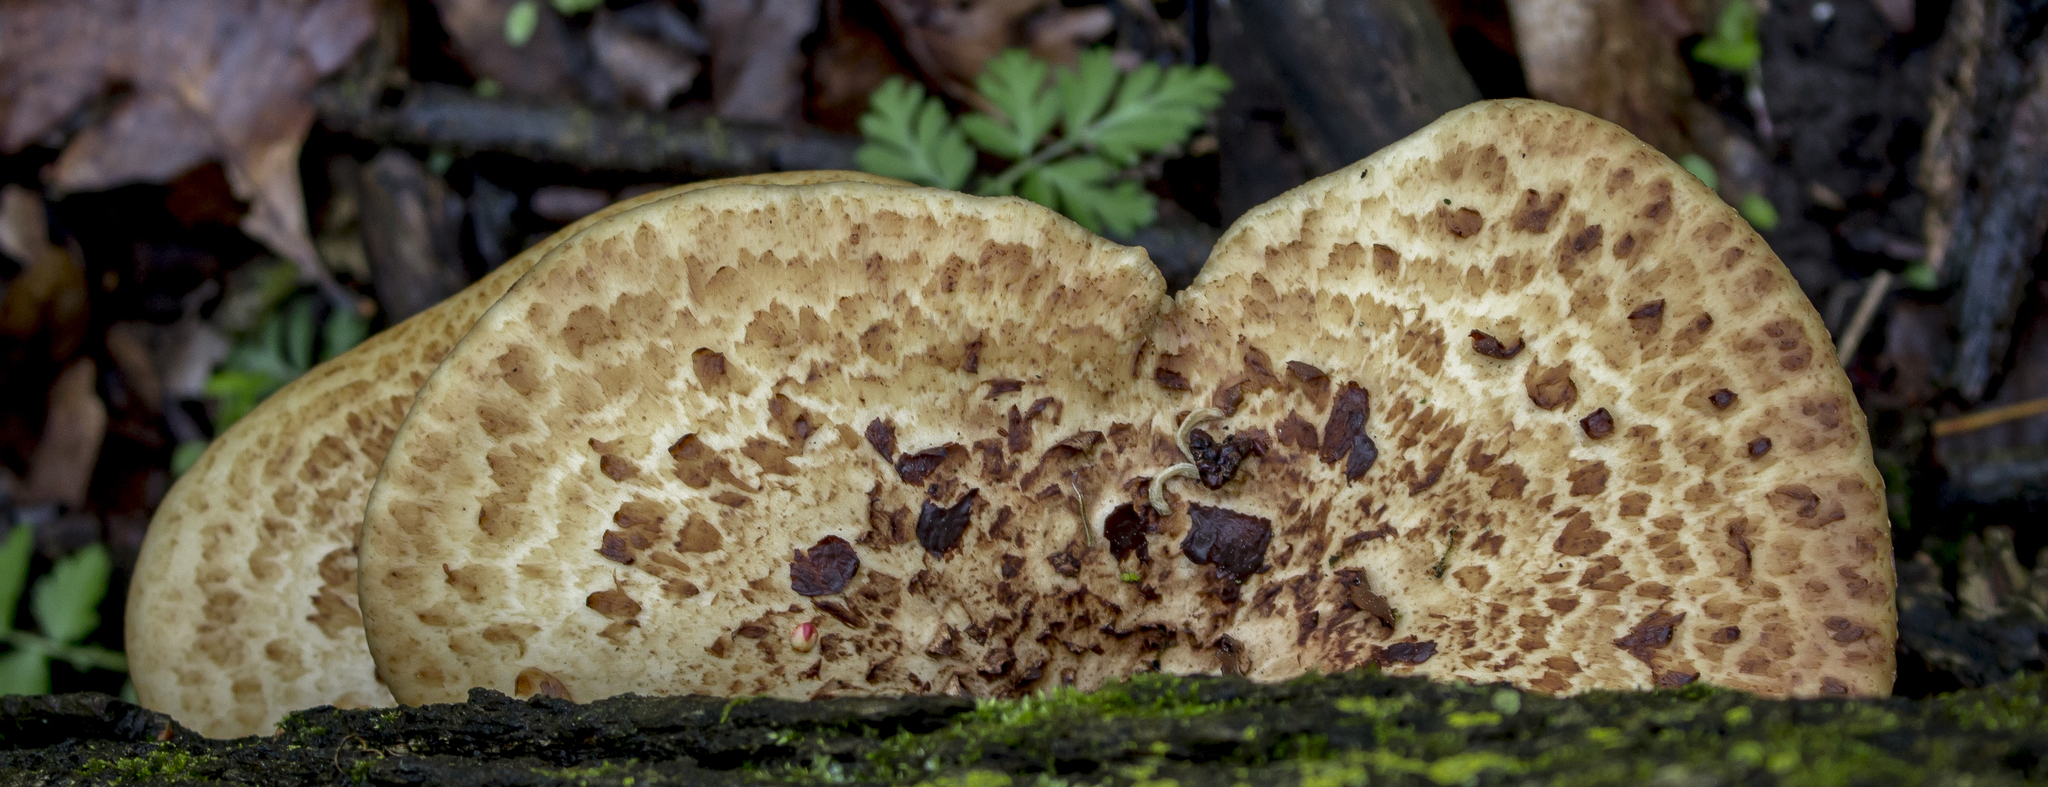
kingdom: Fungi
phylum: Basidiomycota
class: Agaricomycetes
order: Polyporales
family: Polyporaceae
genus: Cerioporus
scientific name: Cerioporus squamosus
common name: Dryad's saddle
